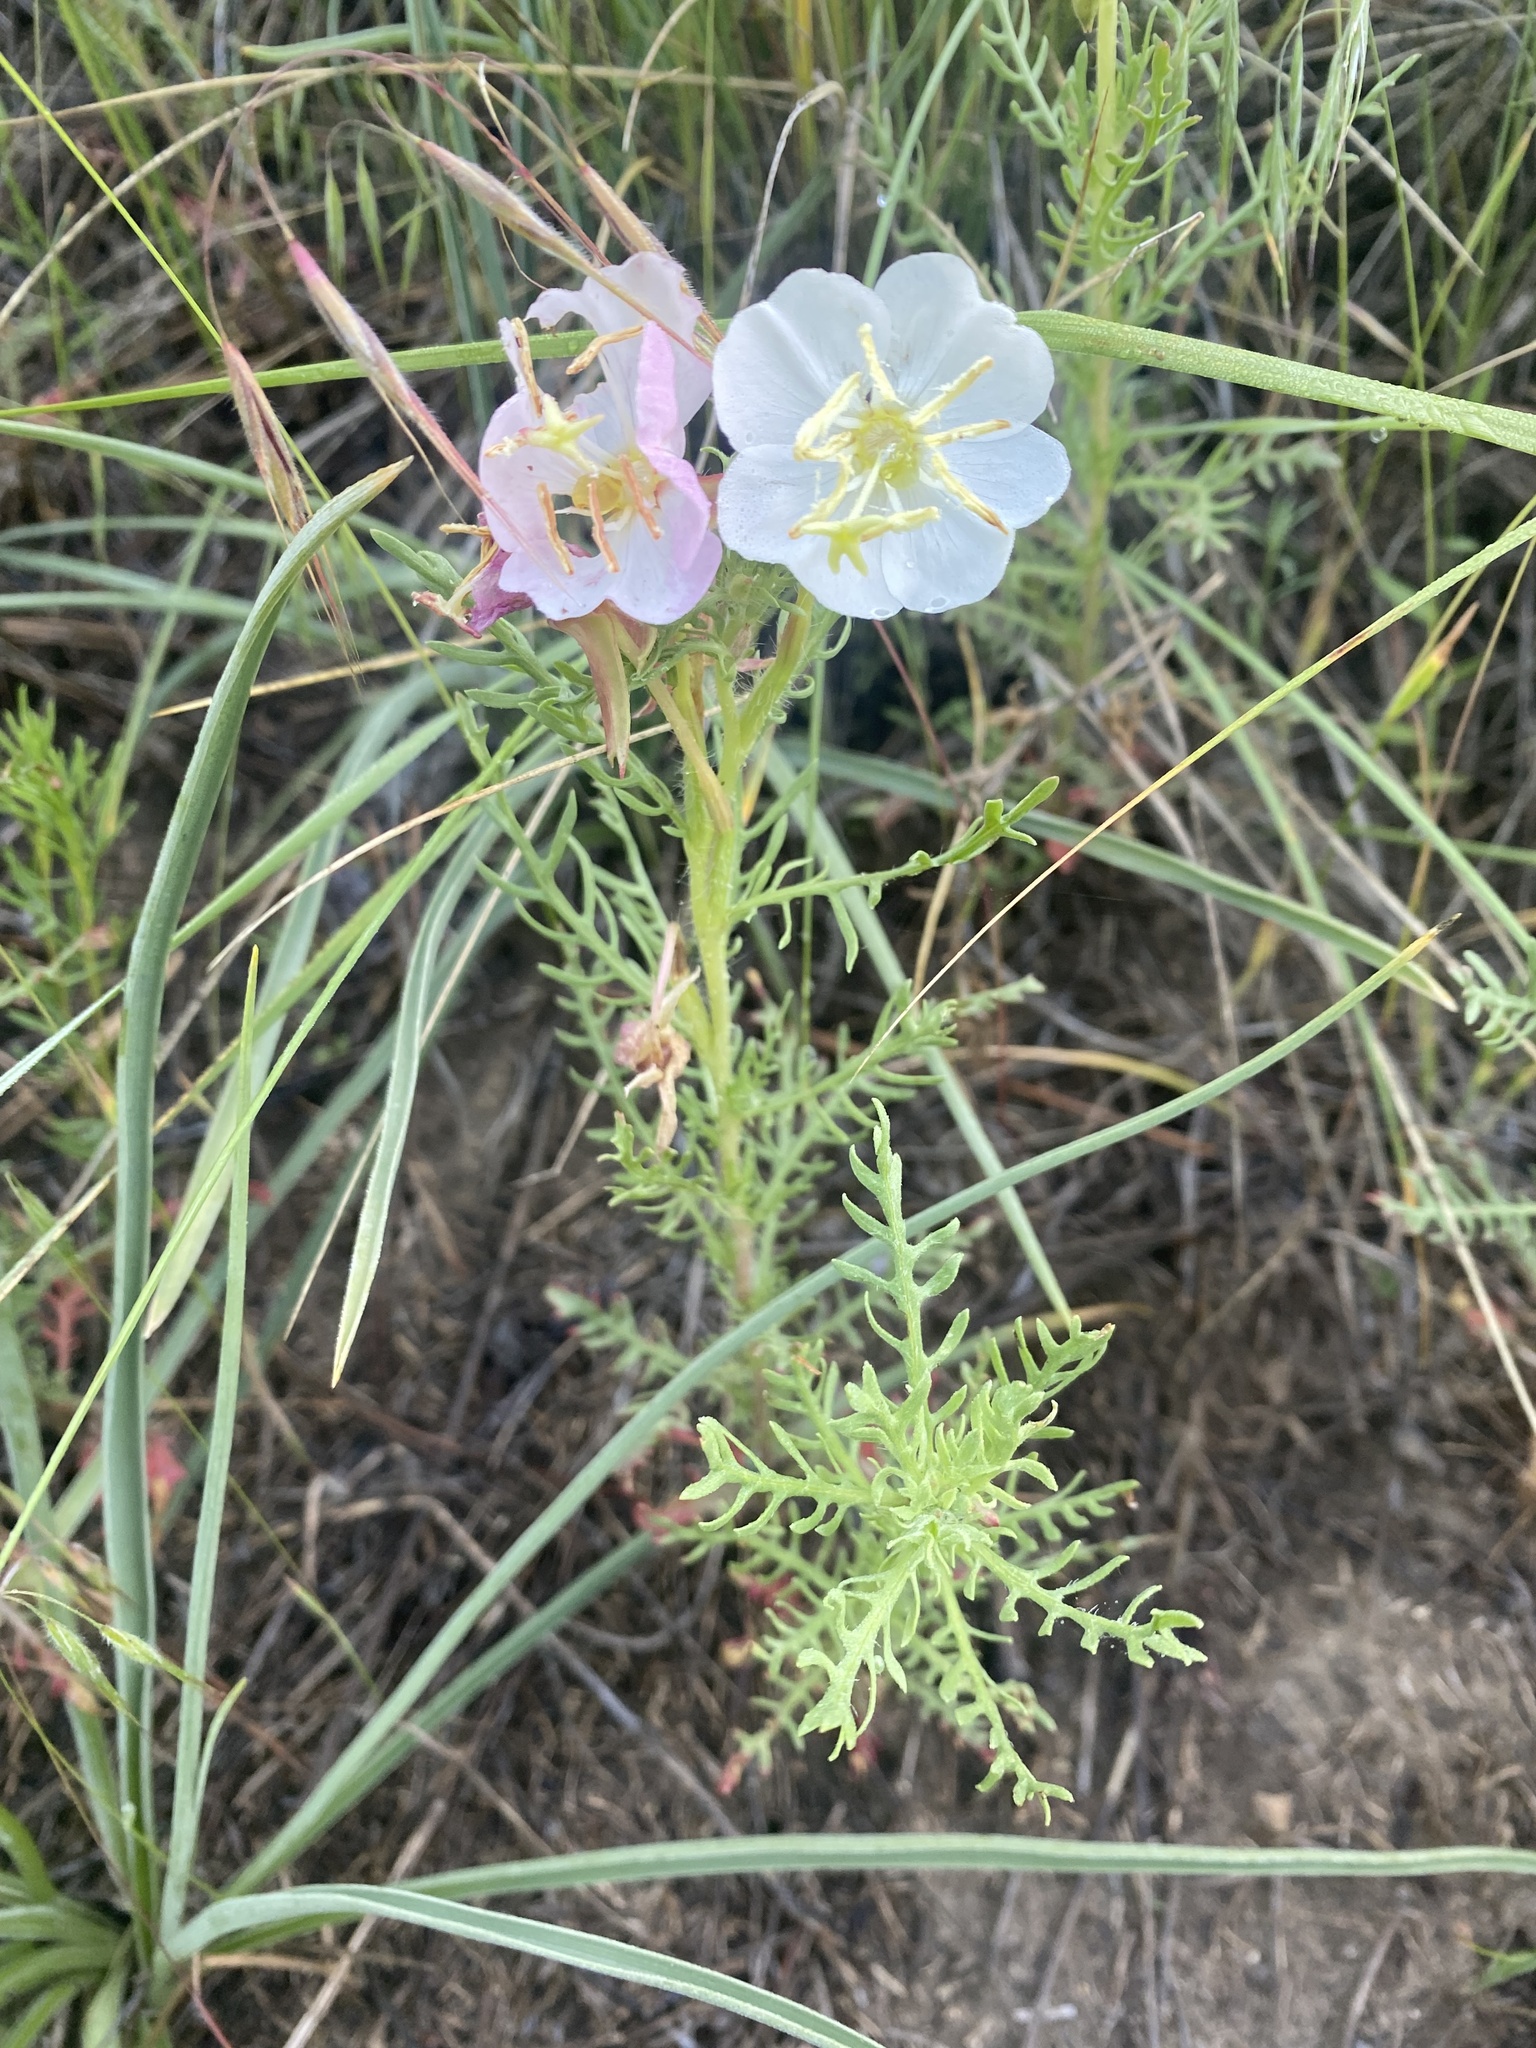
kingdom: Plantae
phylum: Tracheophyta
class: Magnoliopsida
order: Myrtales
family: Onagraceae
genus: Oenothera
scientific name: Oenothera coronopifolia
